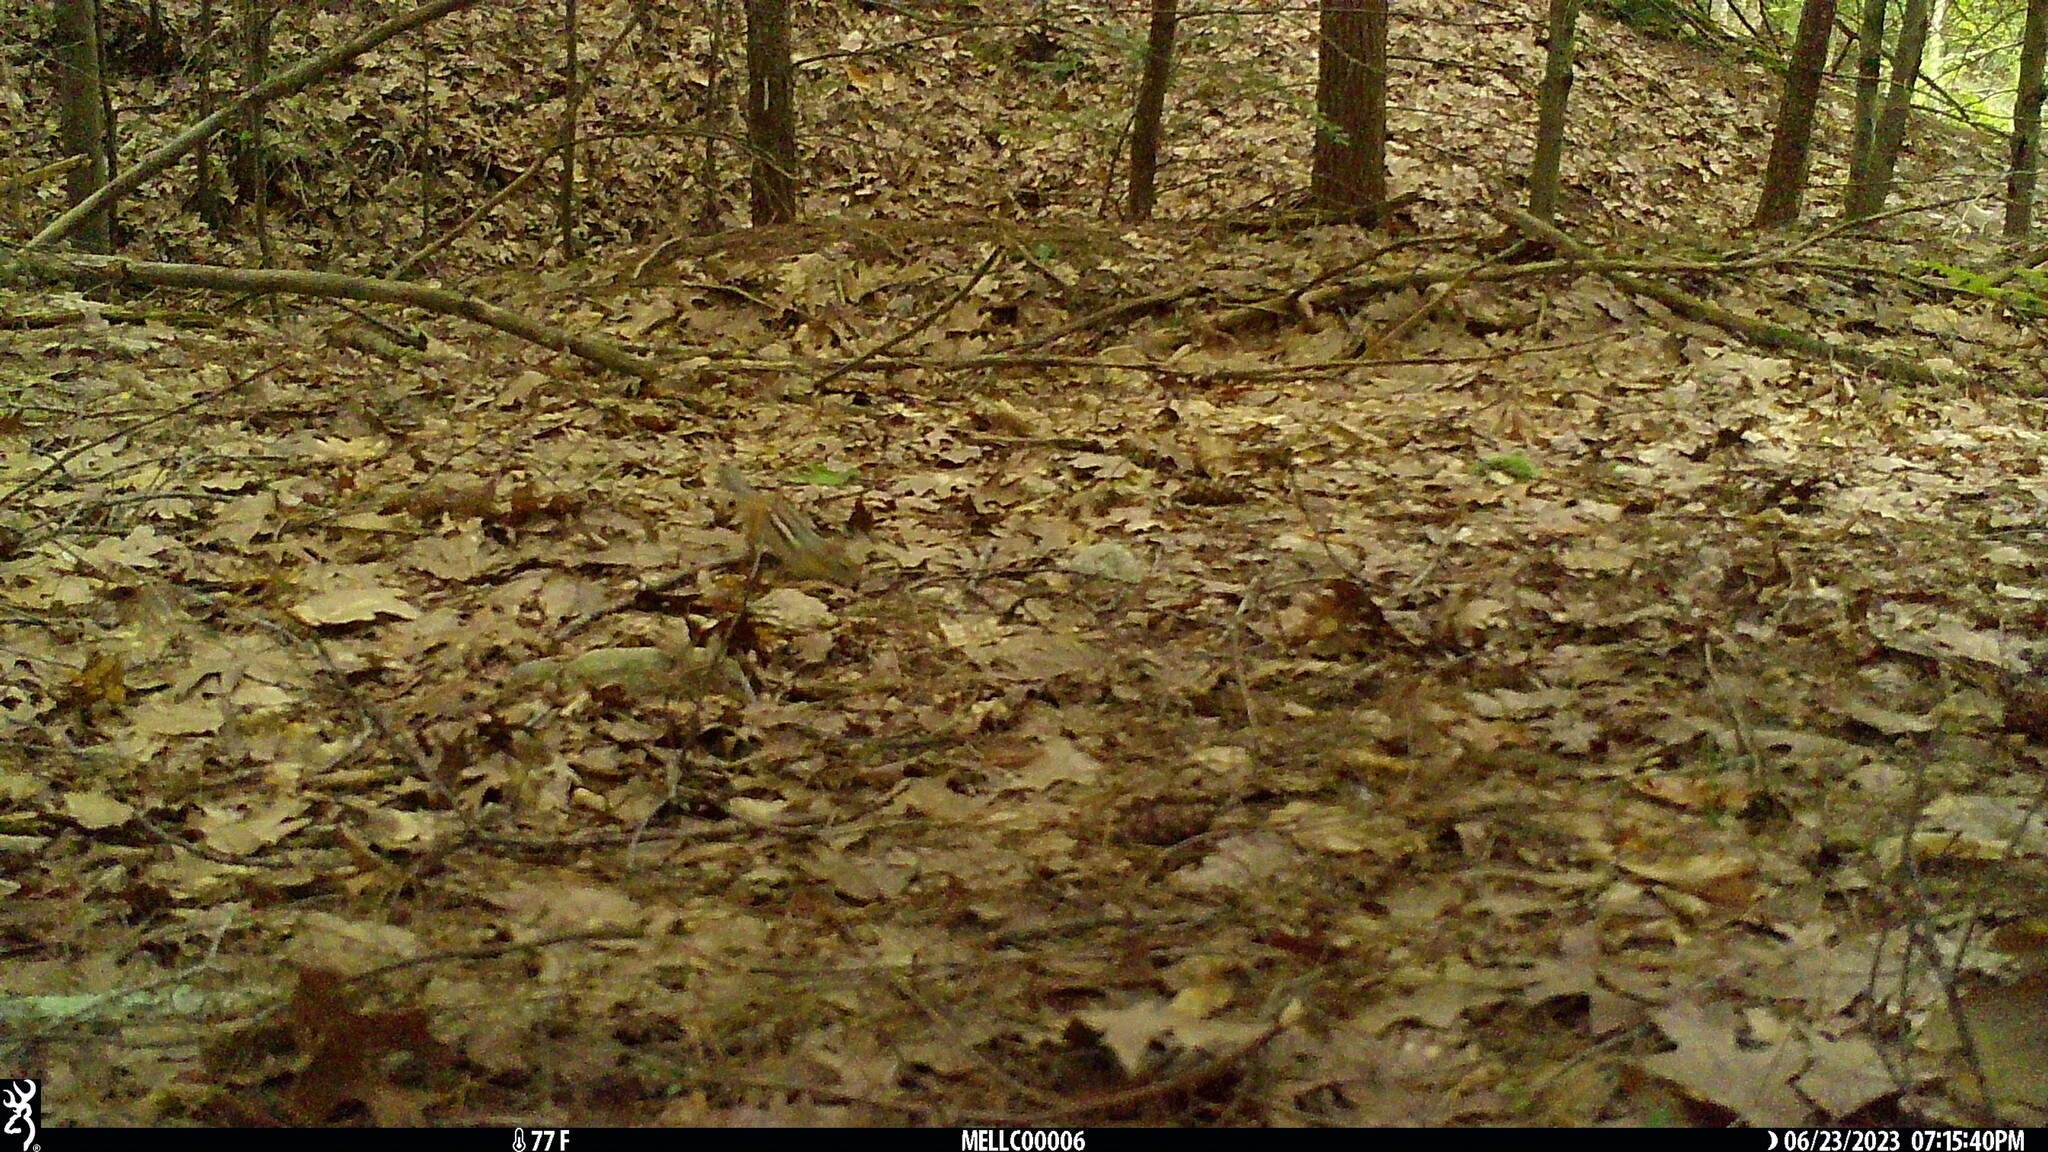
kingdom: Animalia
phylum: Chordata
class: Mammalia
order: Rodentia
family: Sciuridae
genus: Tamias
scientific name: Tamias striatus
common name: Eastern chipmunk
